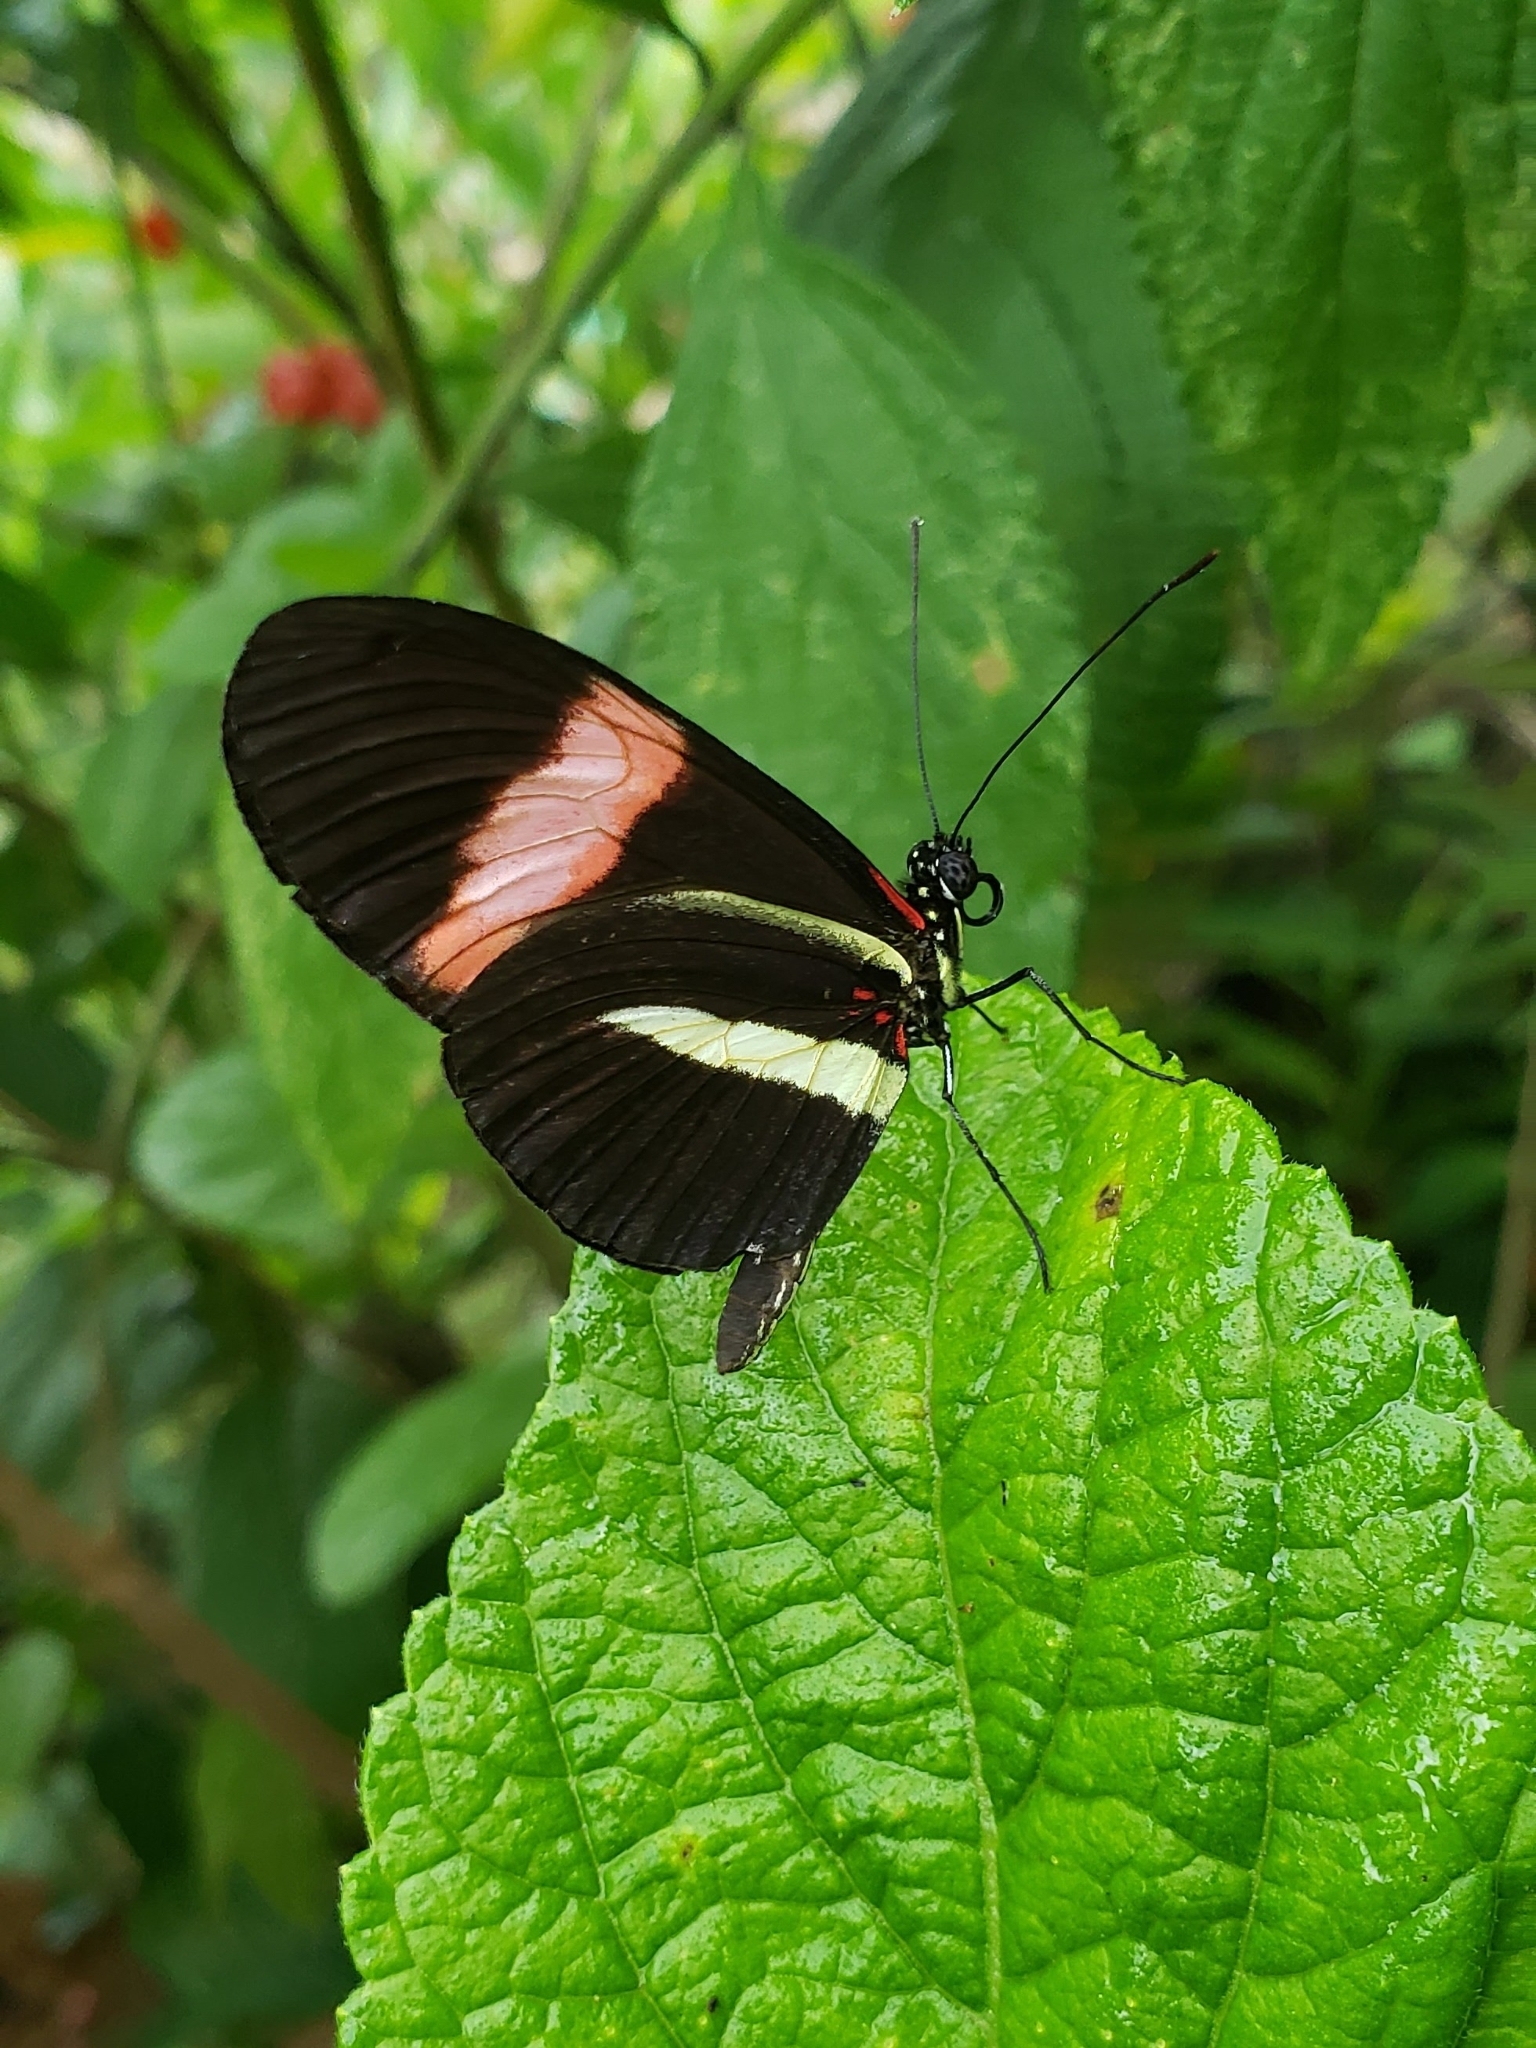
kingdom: Animalia
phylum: Arthropoda
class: Insecta
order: Lepidoptera
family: Nymphalidae
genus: Heliconius
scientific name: Heliconius melpomene
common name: Postman
